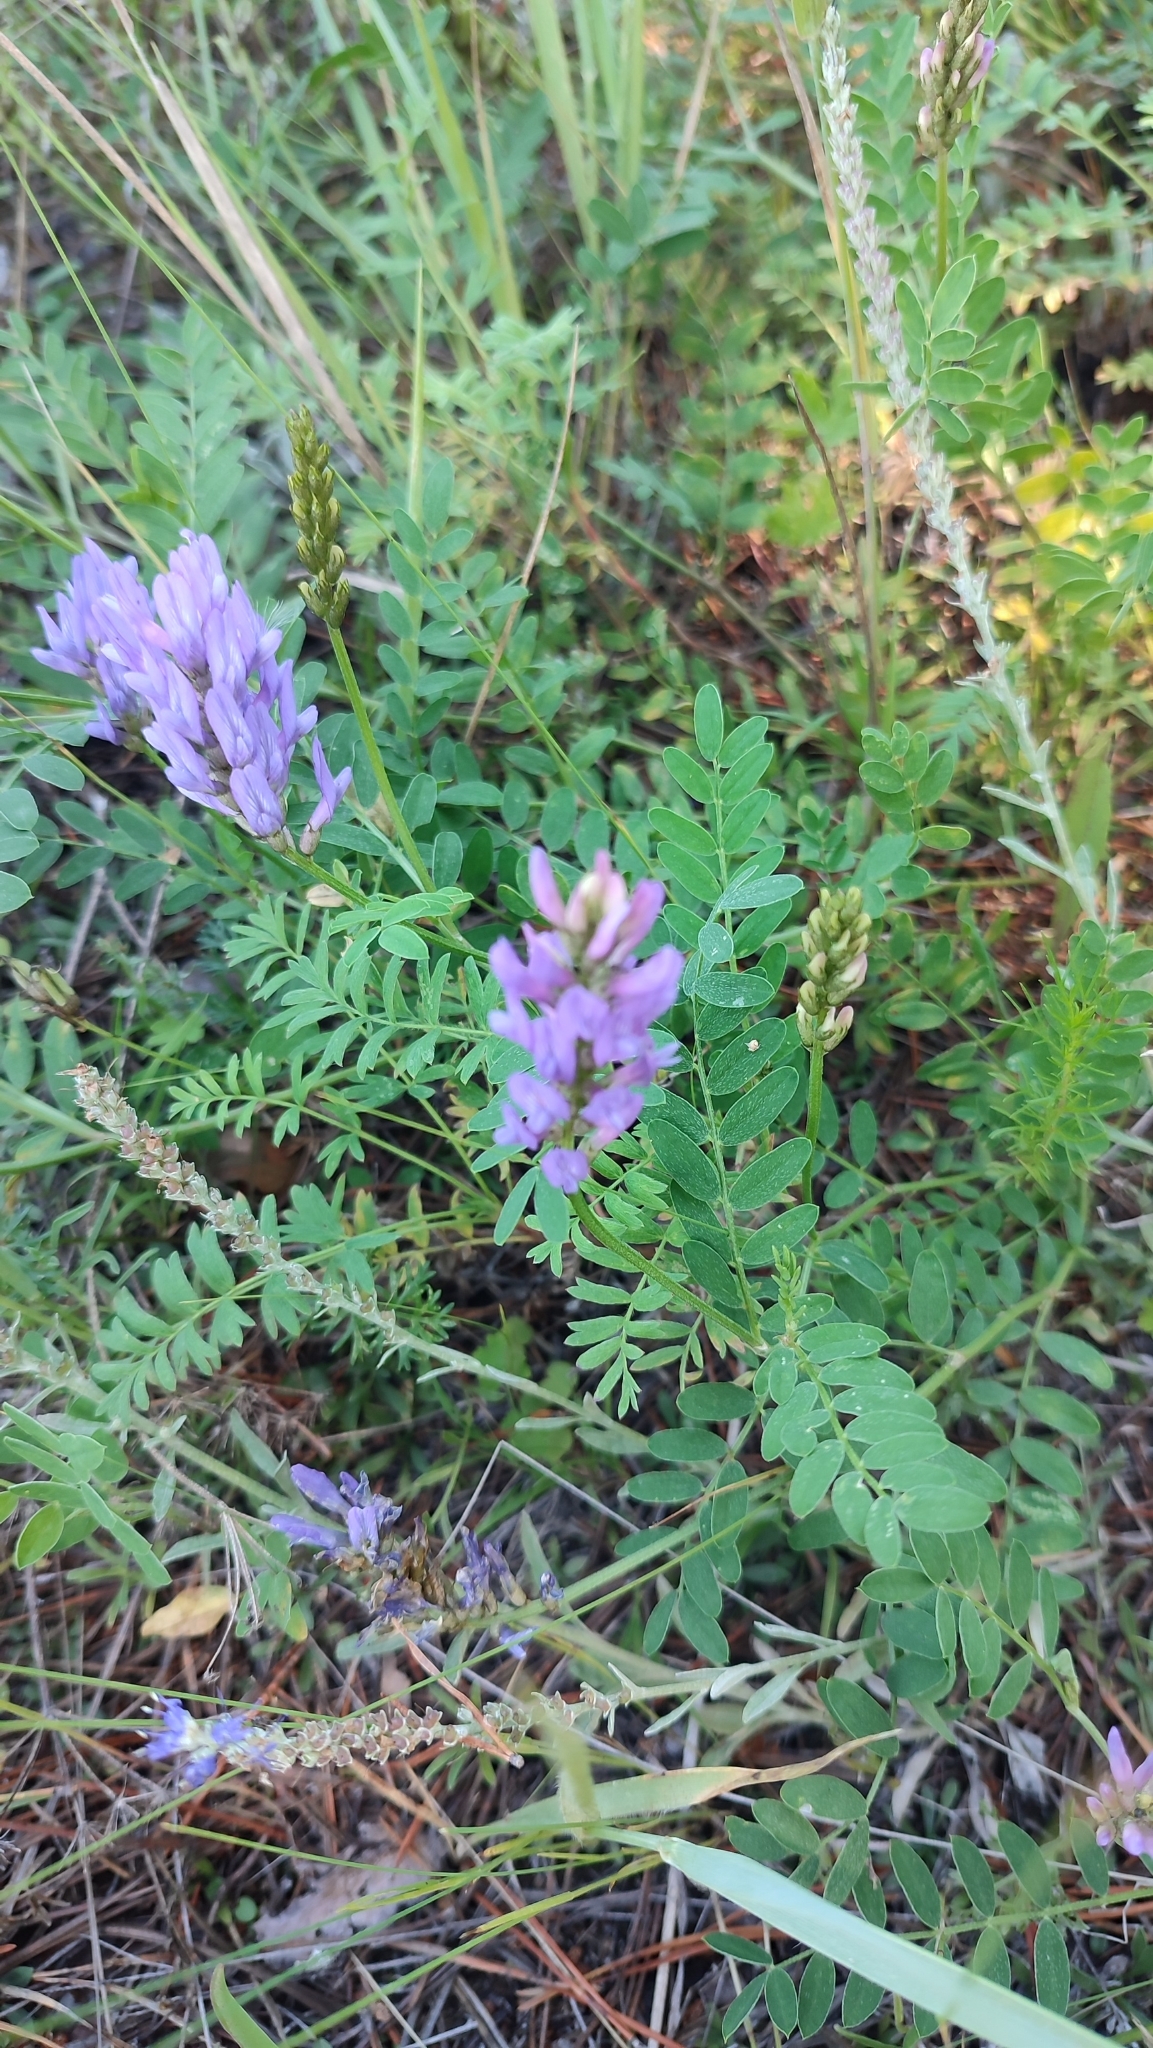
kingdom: Plantae
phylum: Tracheophyta
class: Magnoliopsida
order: Fabales
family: Fabaceae
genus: Astragalus
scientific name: Astragalus laxmannii
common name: Laxmann's milk-vetch
